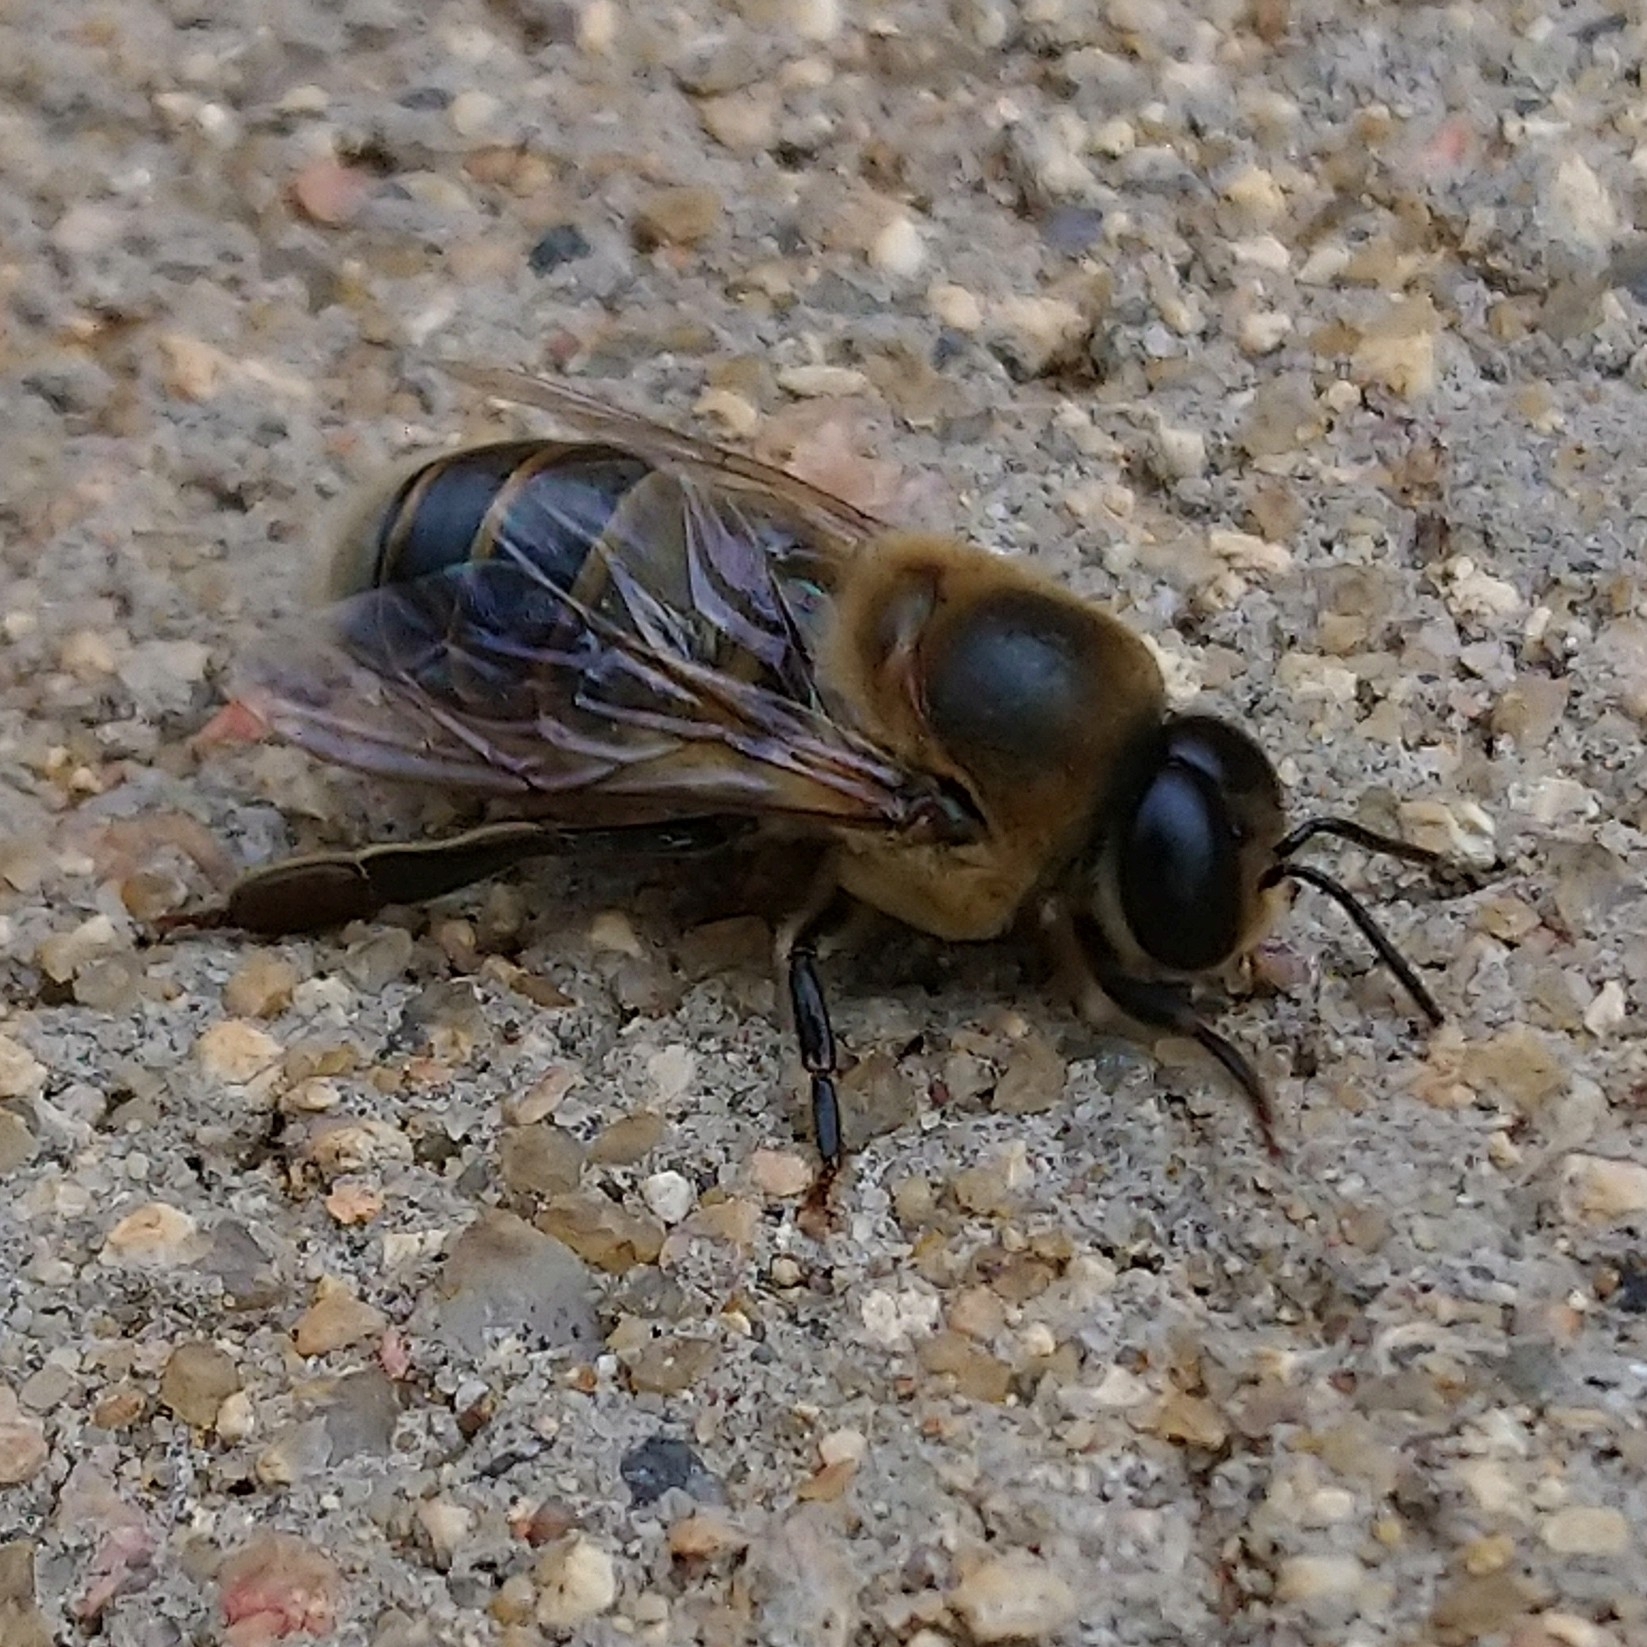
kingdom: Animalia
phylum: Arthropoda
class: Insecta
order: Hymenoptera
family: Apidae
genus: Apis
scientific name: Apis mellifera
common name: Honey bee
